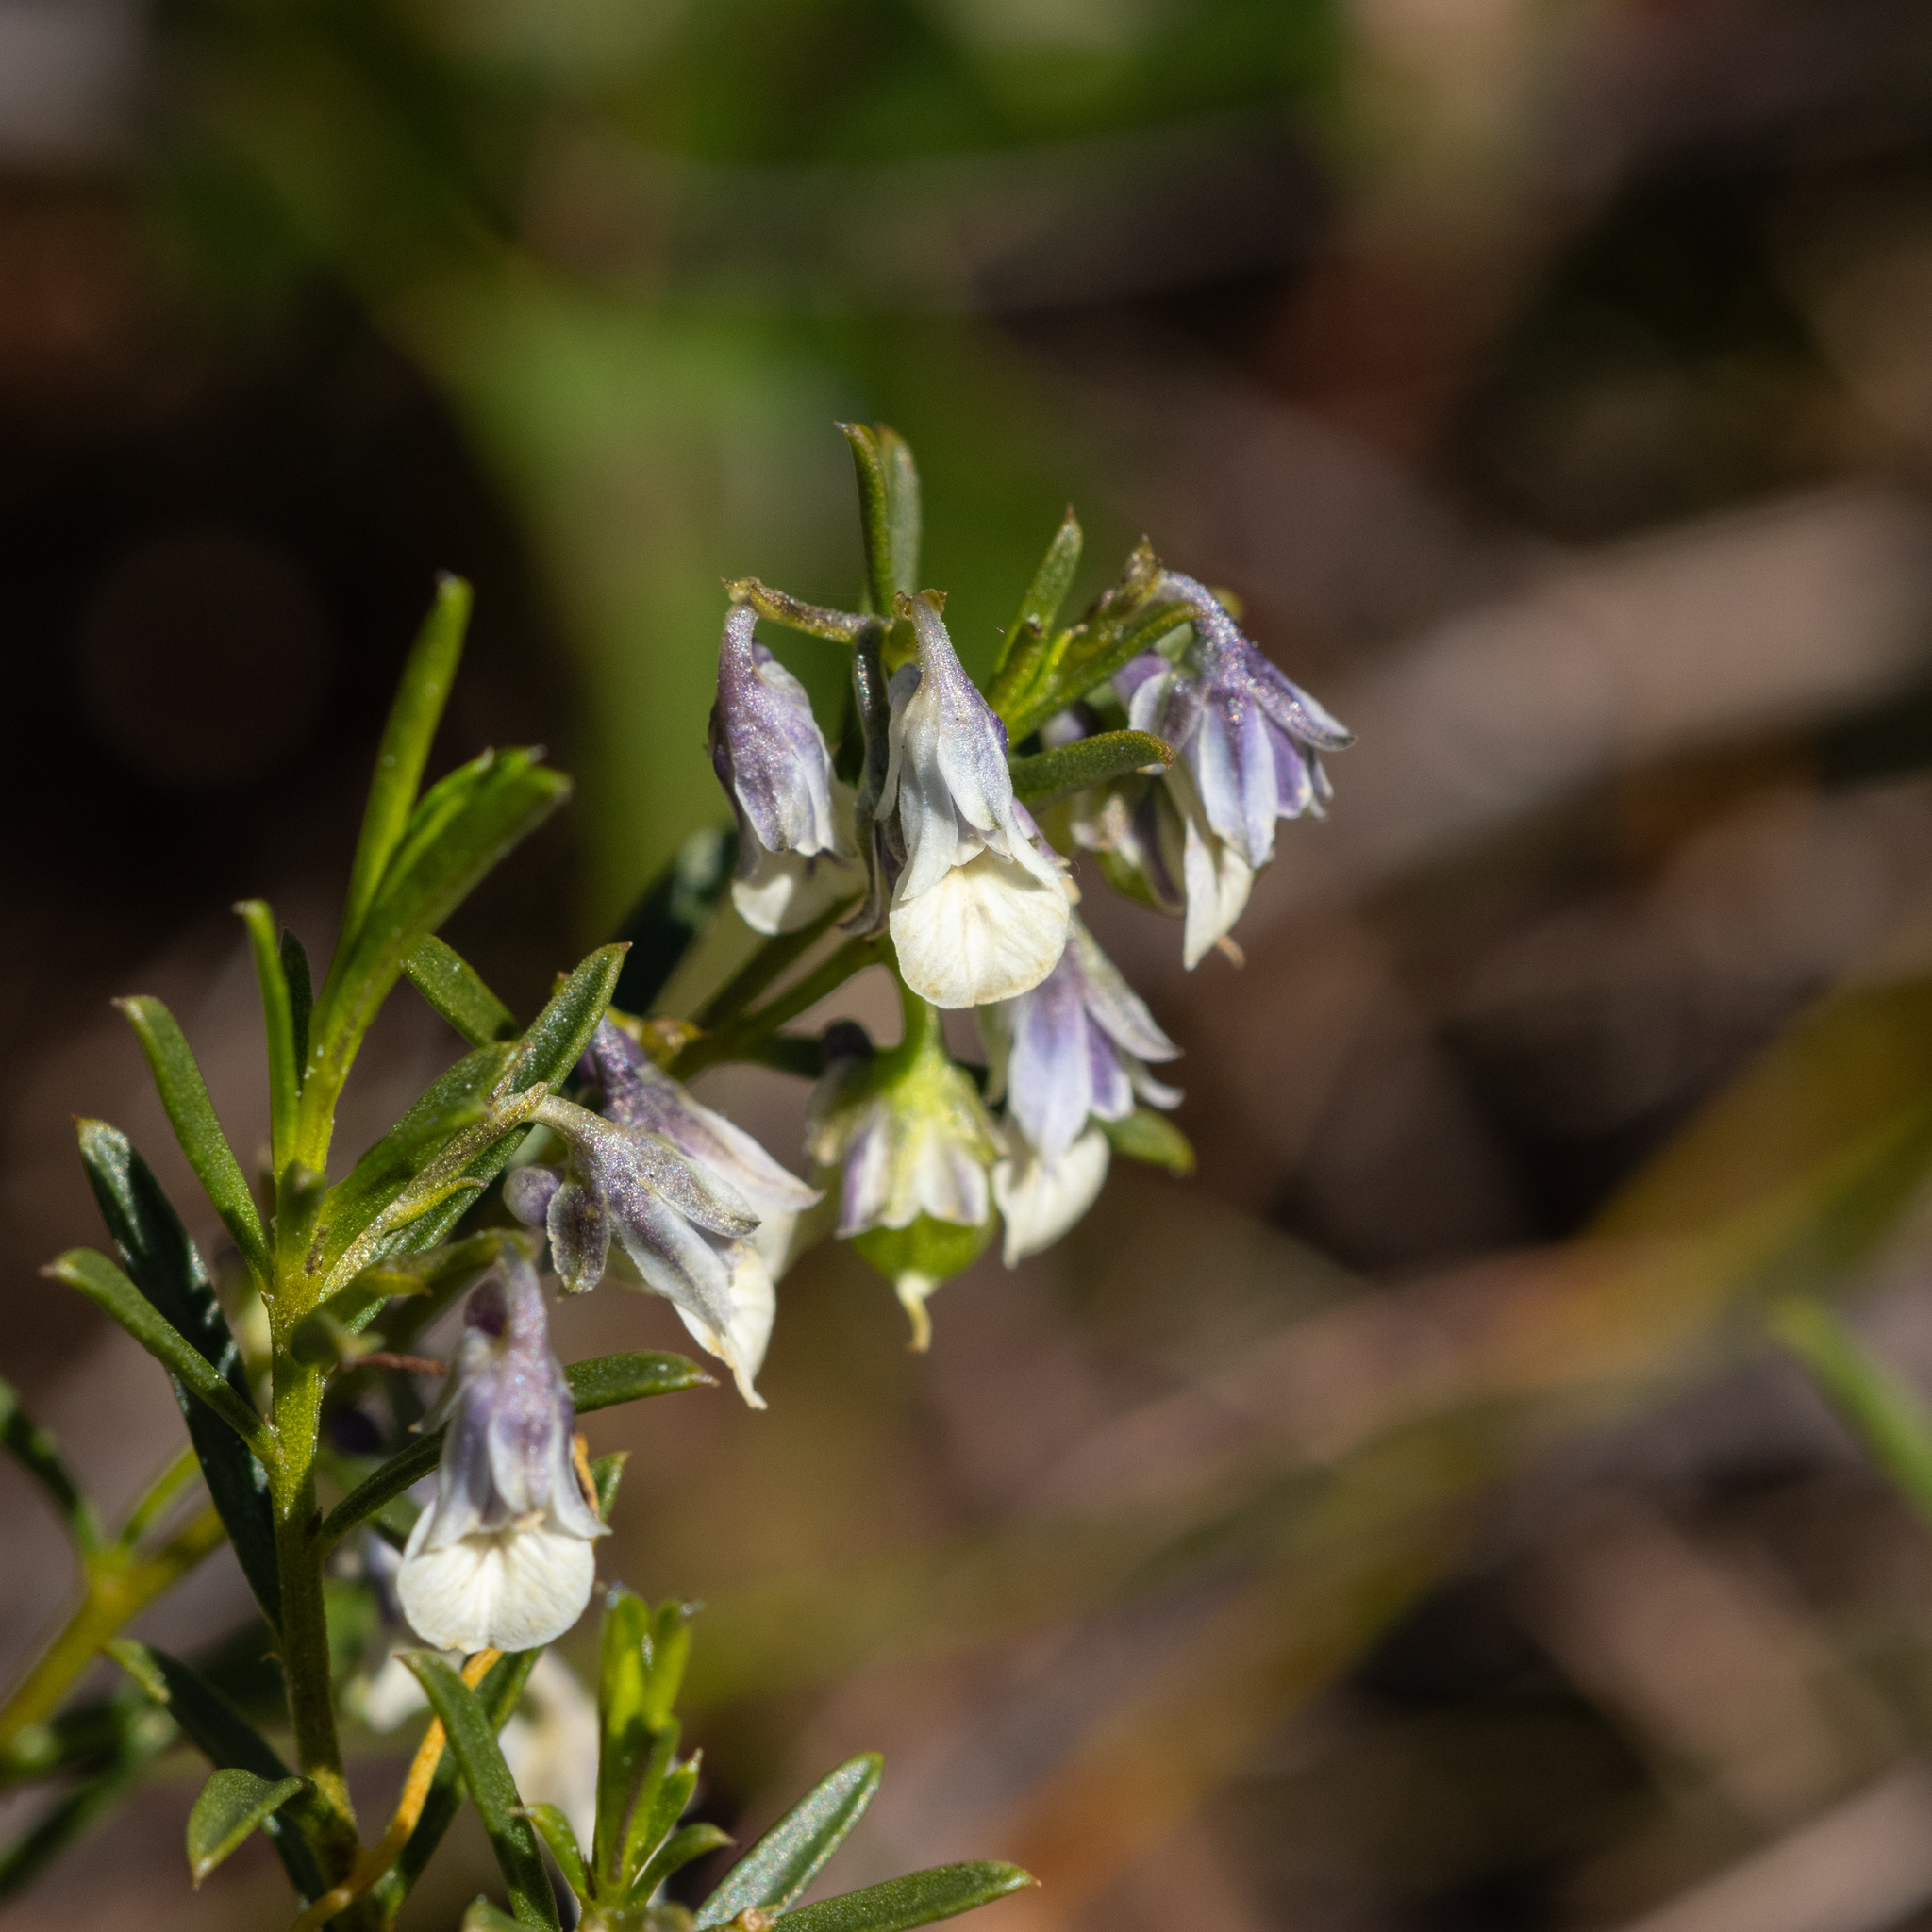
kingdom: Plantae
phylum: Tracheophyta
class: Magnoliopsida
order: Malpighiales
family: Violaceae
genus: Pigea
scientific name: Pigea floribunda
